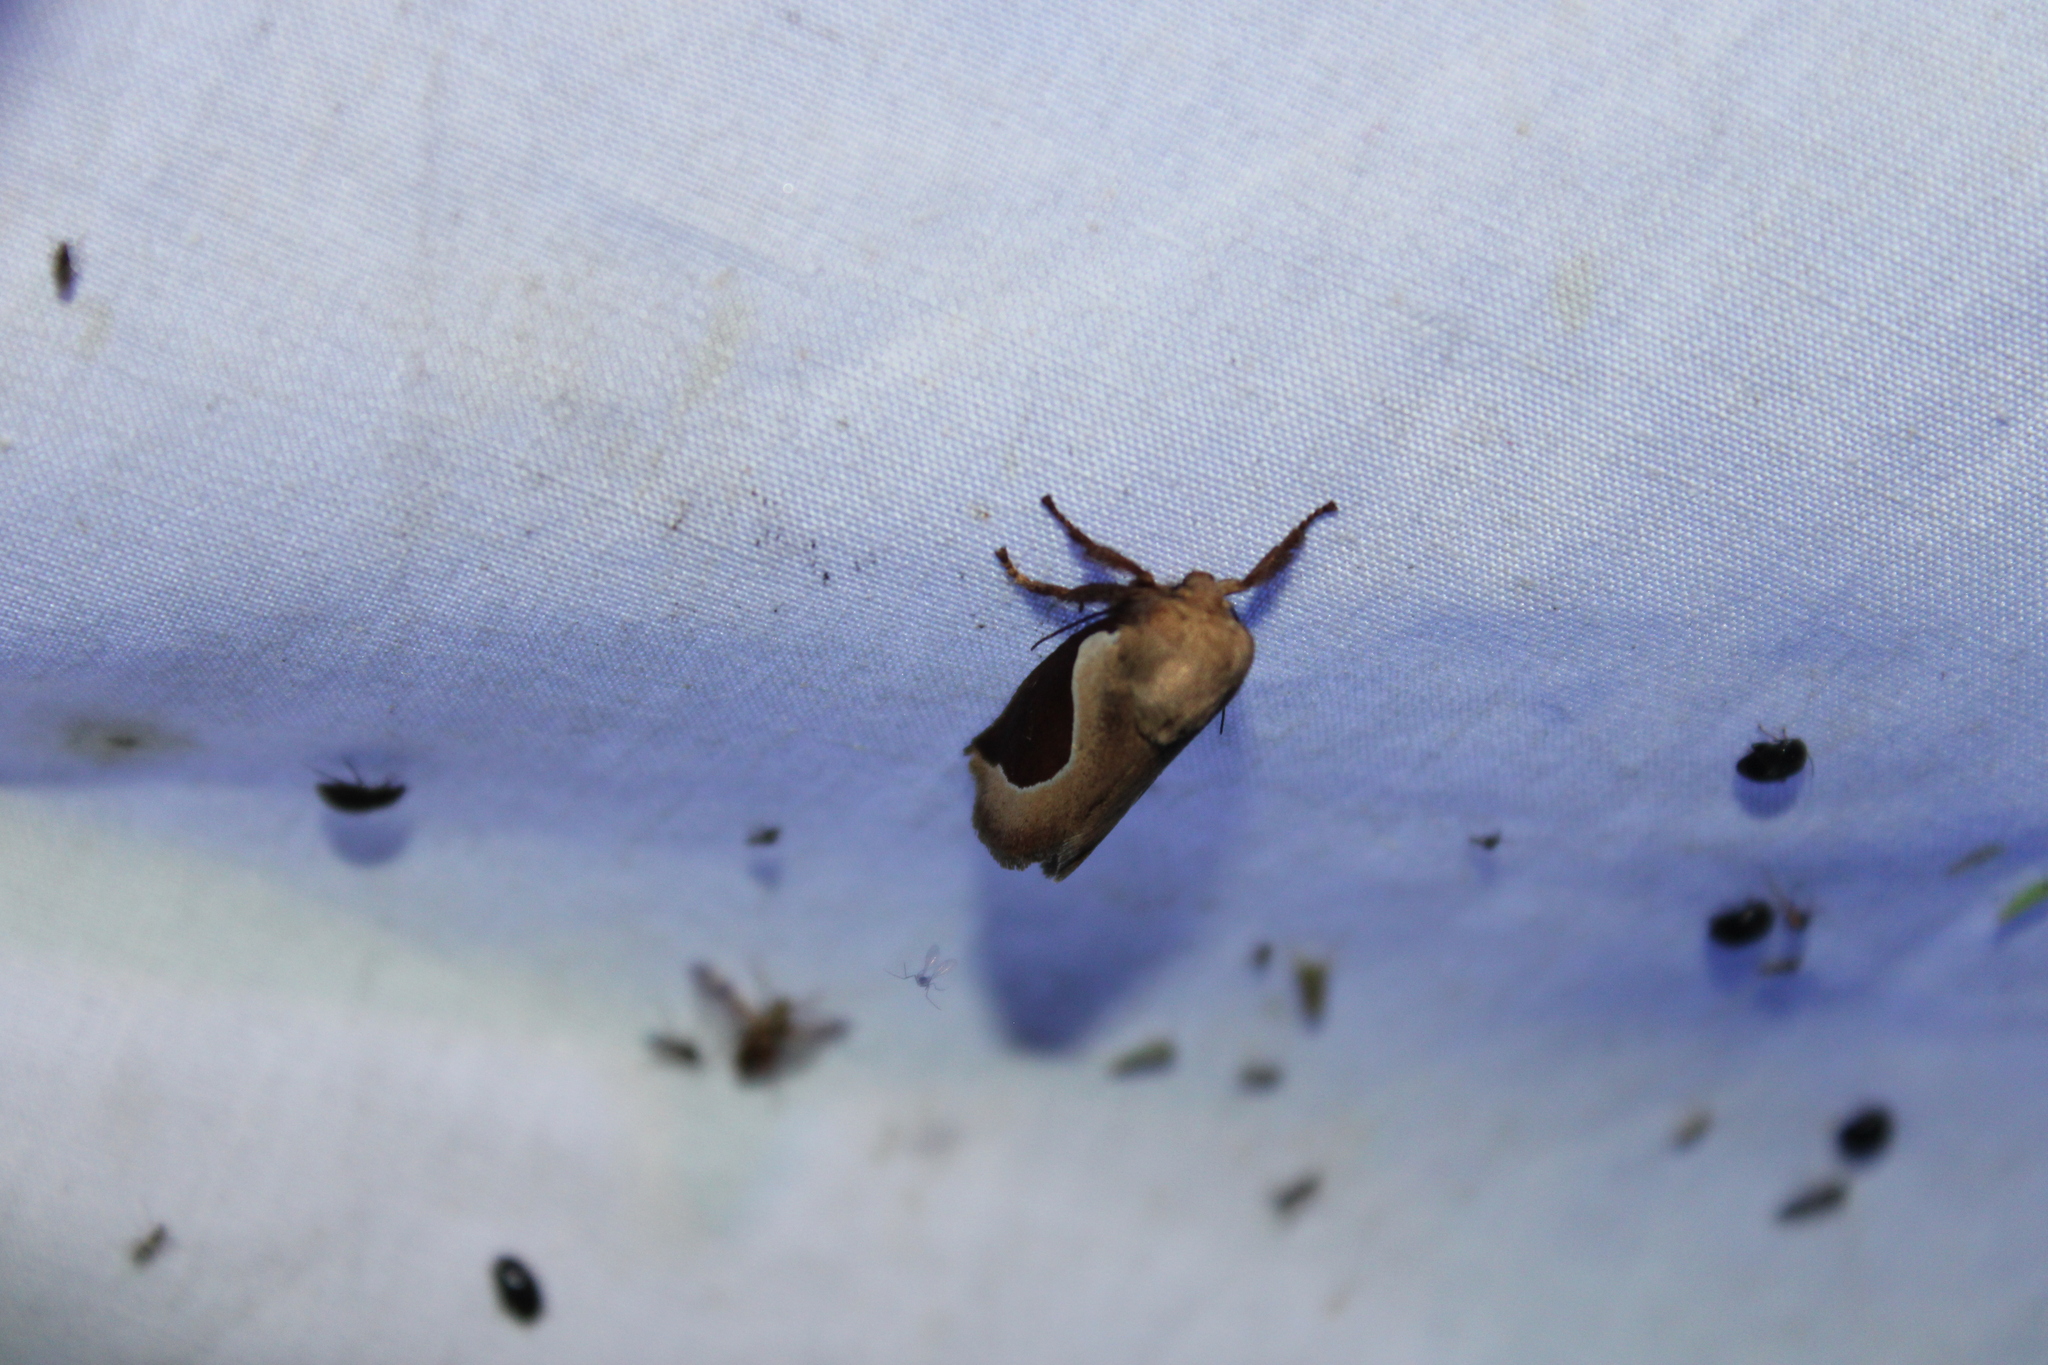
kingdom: Animalia
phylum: Arthropoda
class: Insecta
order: Lepidoptera
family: Limacodidae
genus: Prolimacodes
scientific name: Prolimacodes badia
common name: Skiff moth
